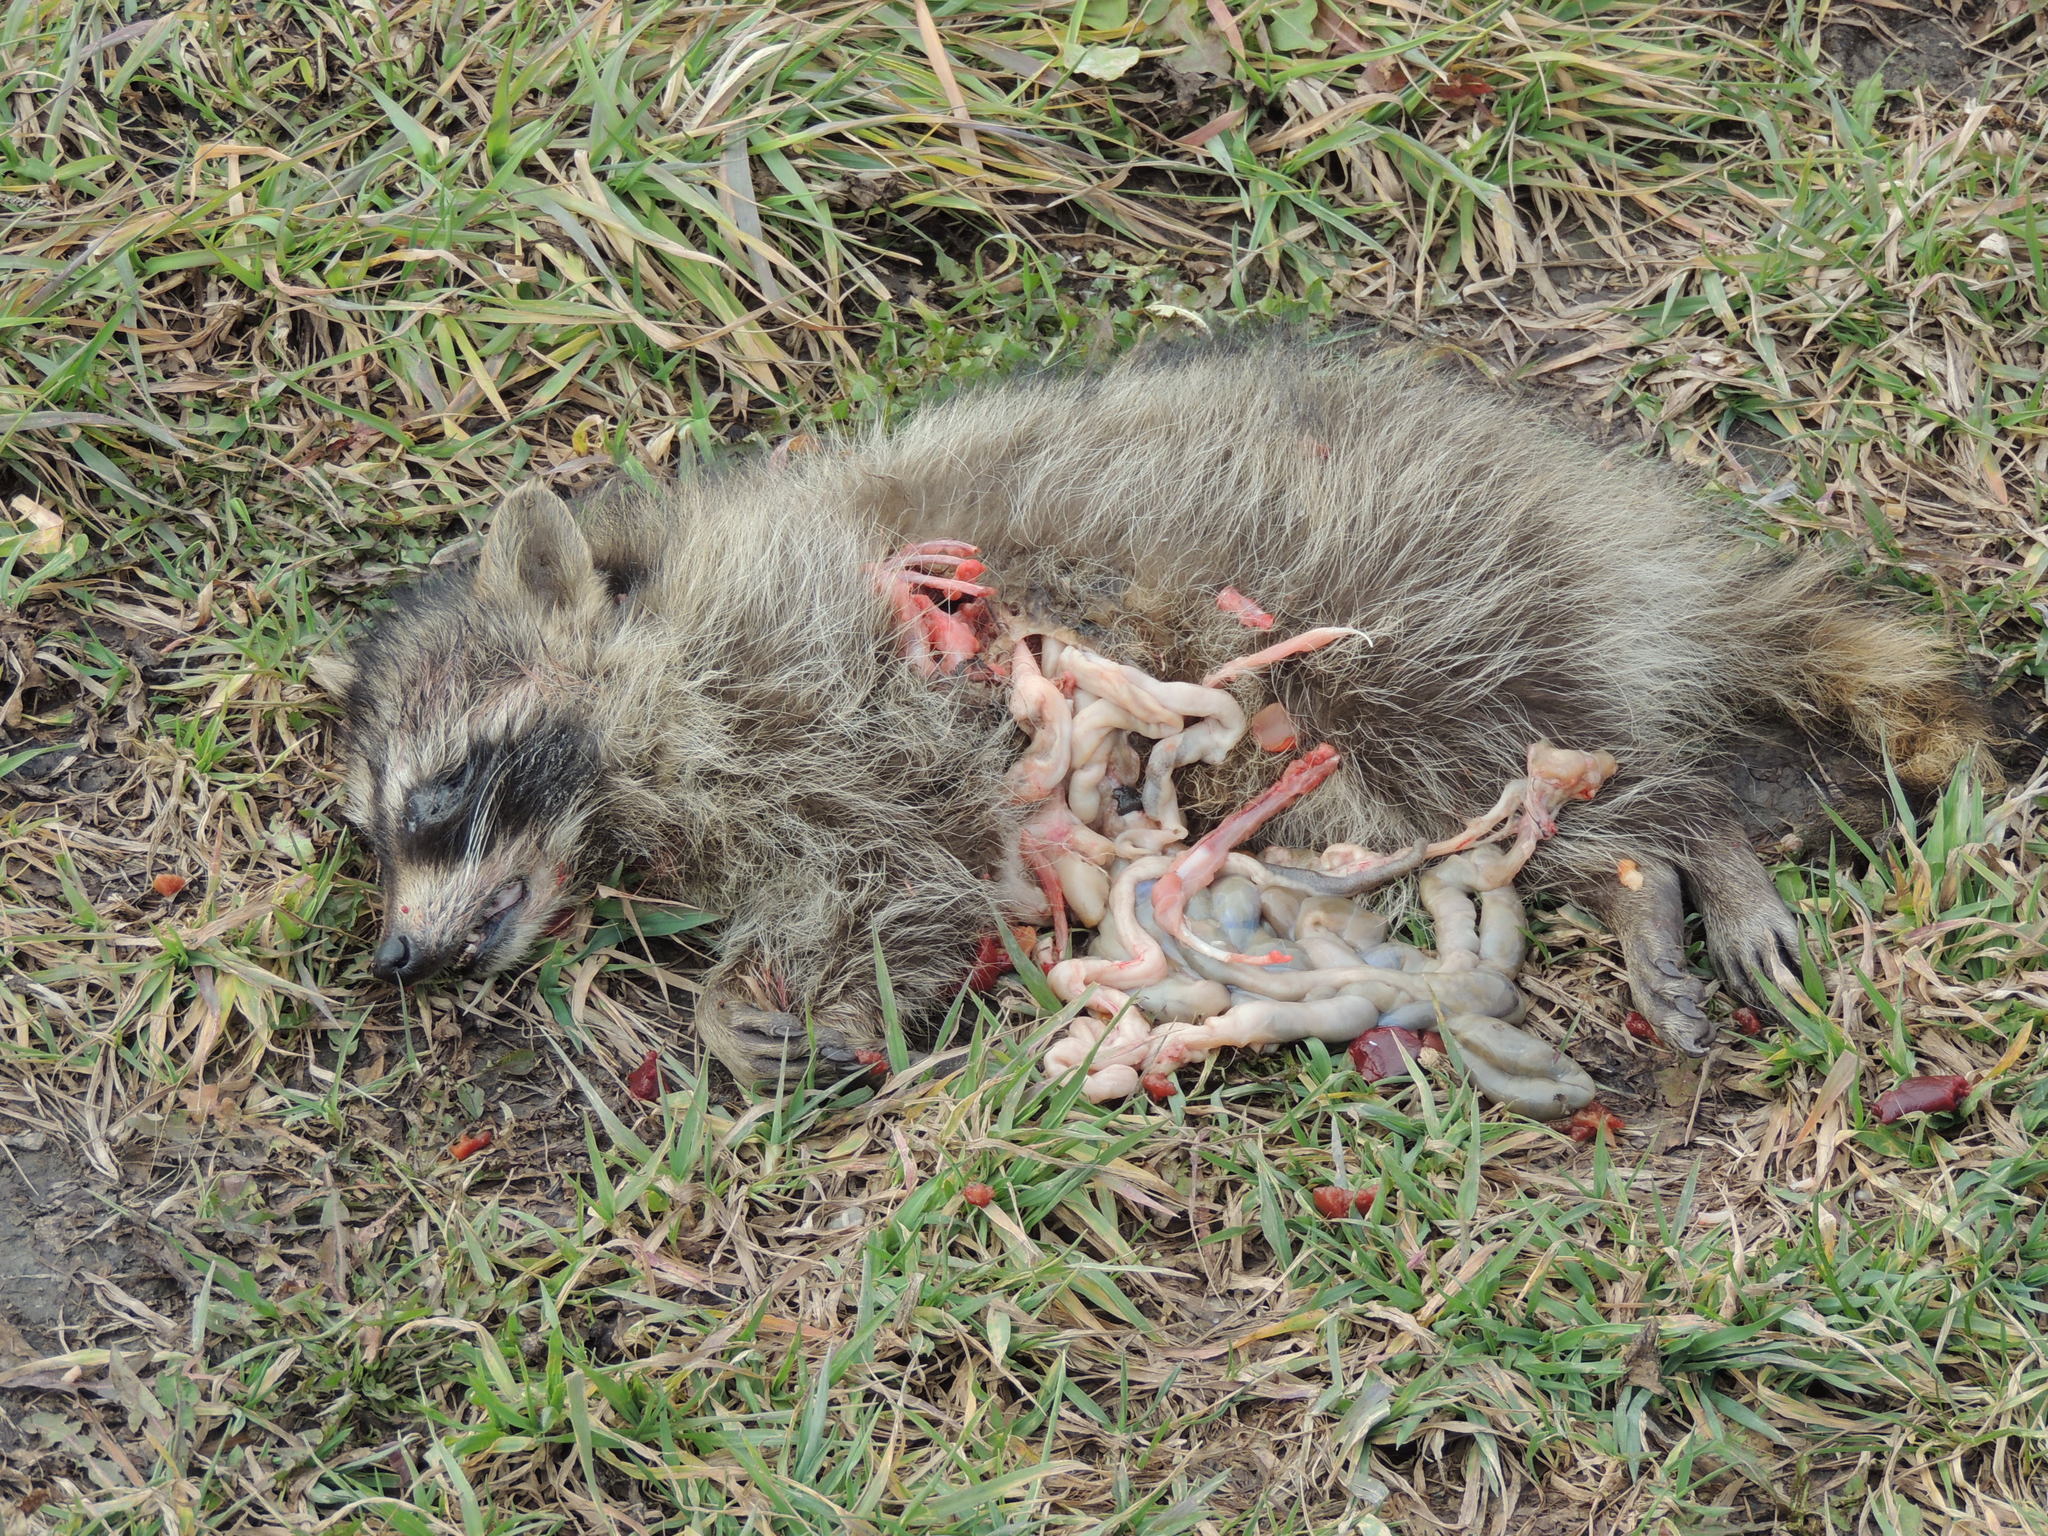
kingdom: Animalia
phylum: Chordata
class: Mammalia
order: Carnivora
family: Procyonidae
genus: Procyon
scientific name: Procyon lotor
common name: Raccoon
